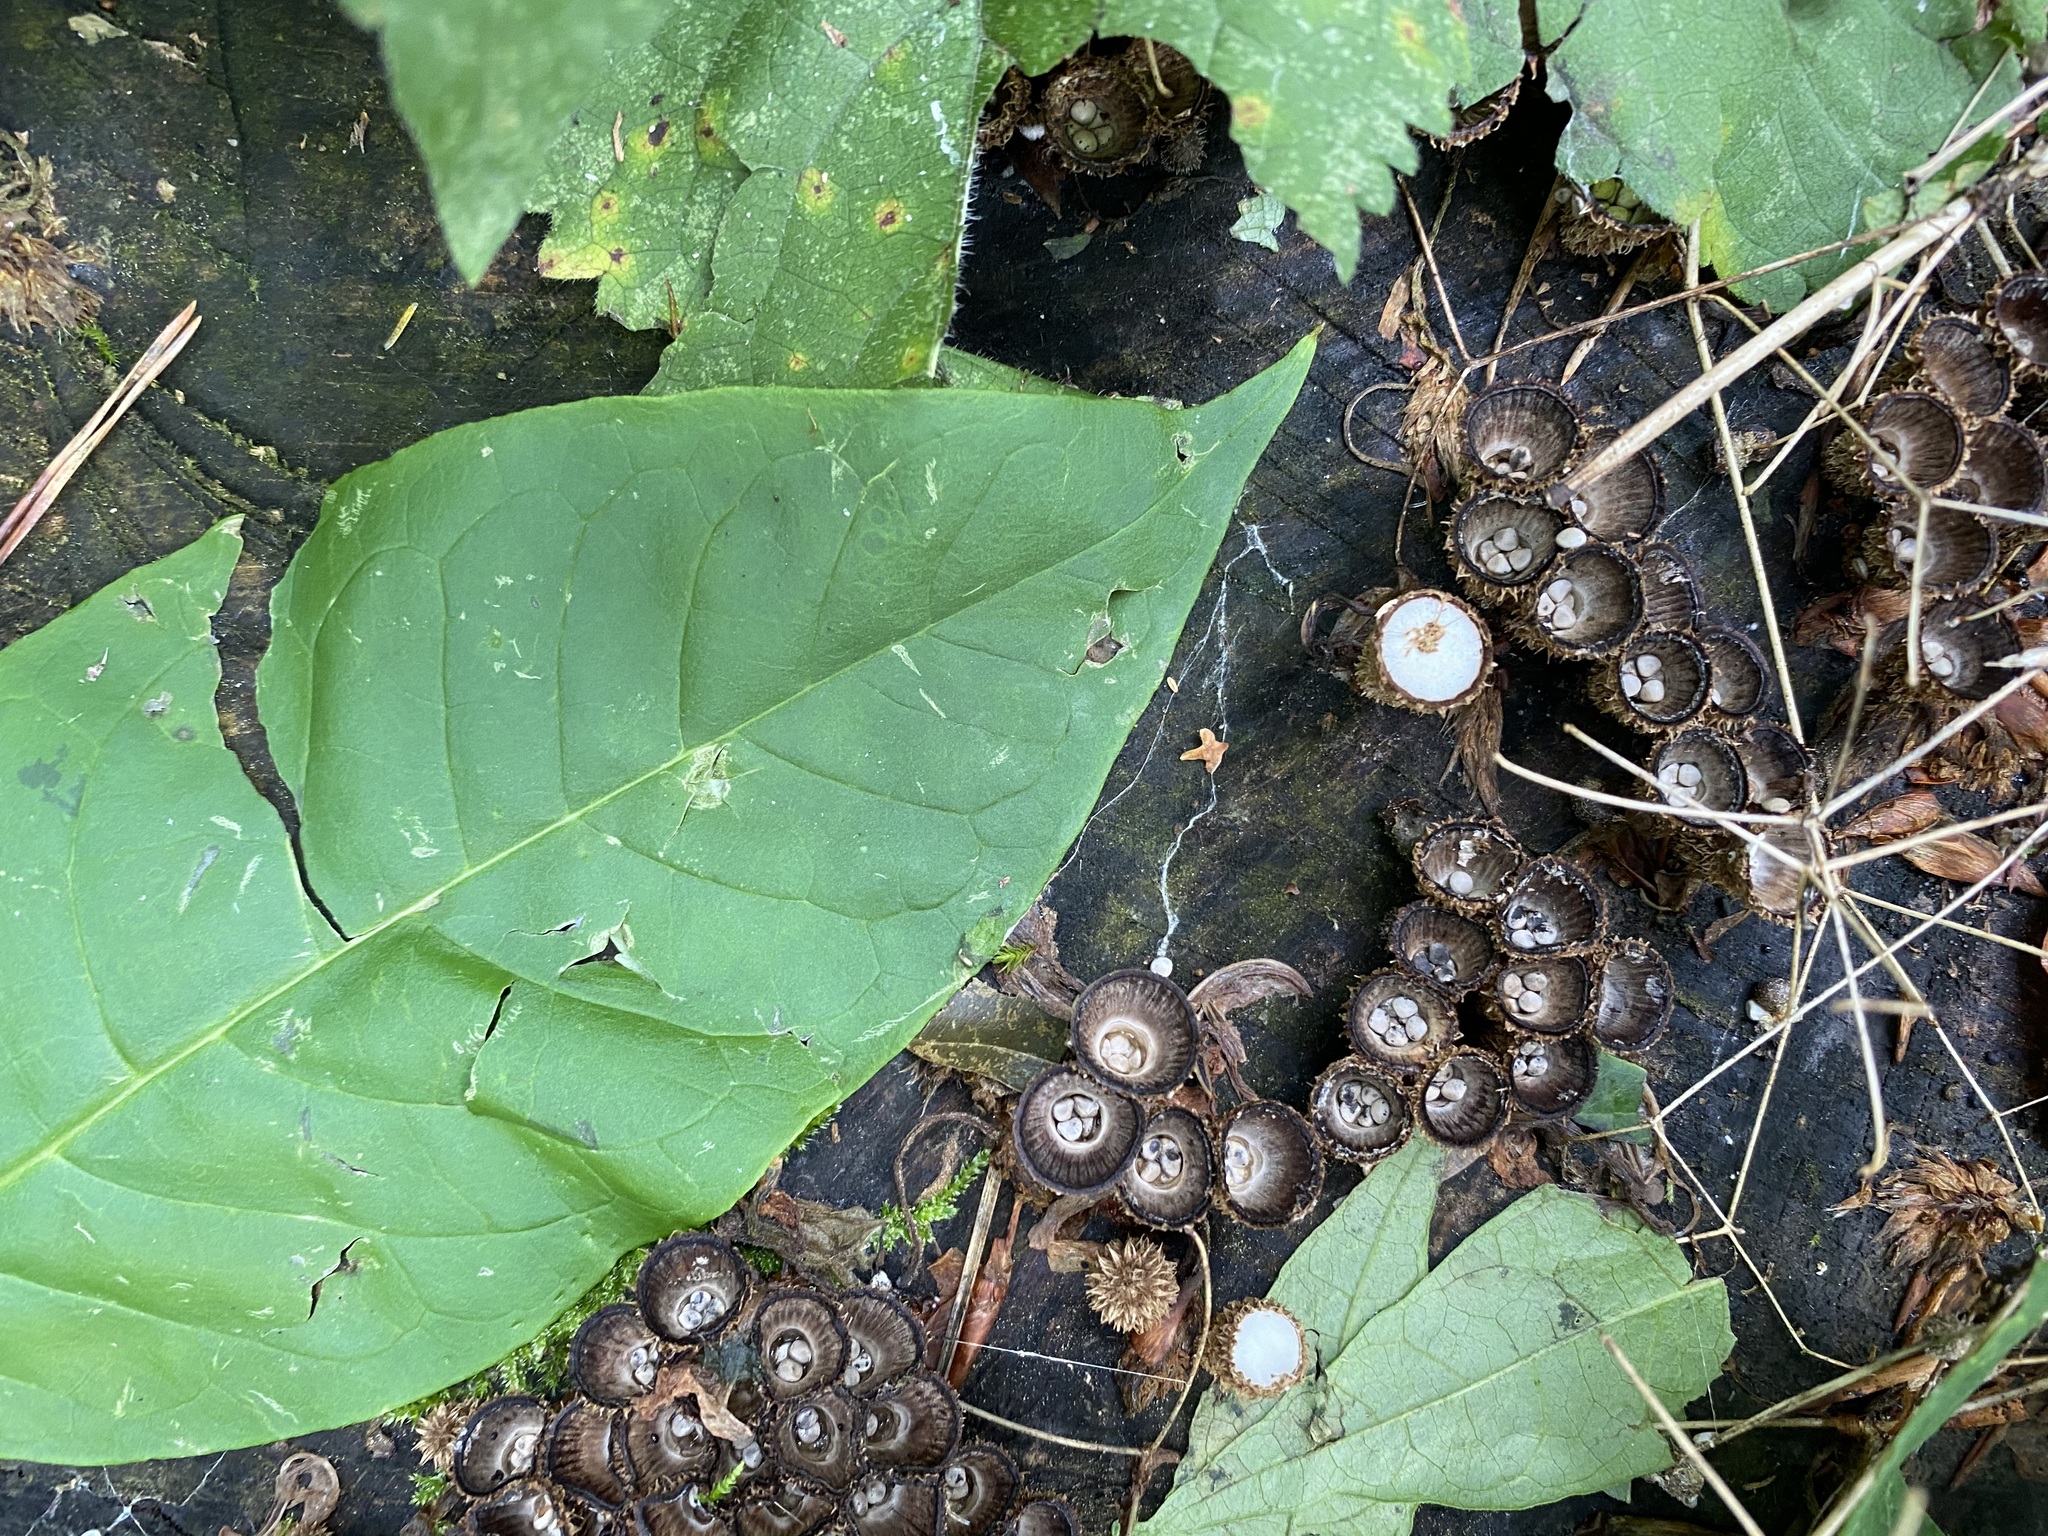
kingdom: Fungi
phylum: Basidiomycota
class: Agaricomycetes
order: Agaricales
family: Agaricaceae
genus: Cyathus
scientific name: Cyathus striatus
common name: Fluted bird's nest
